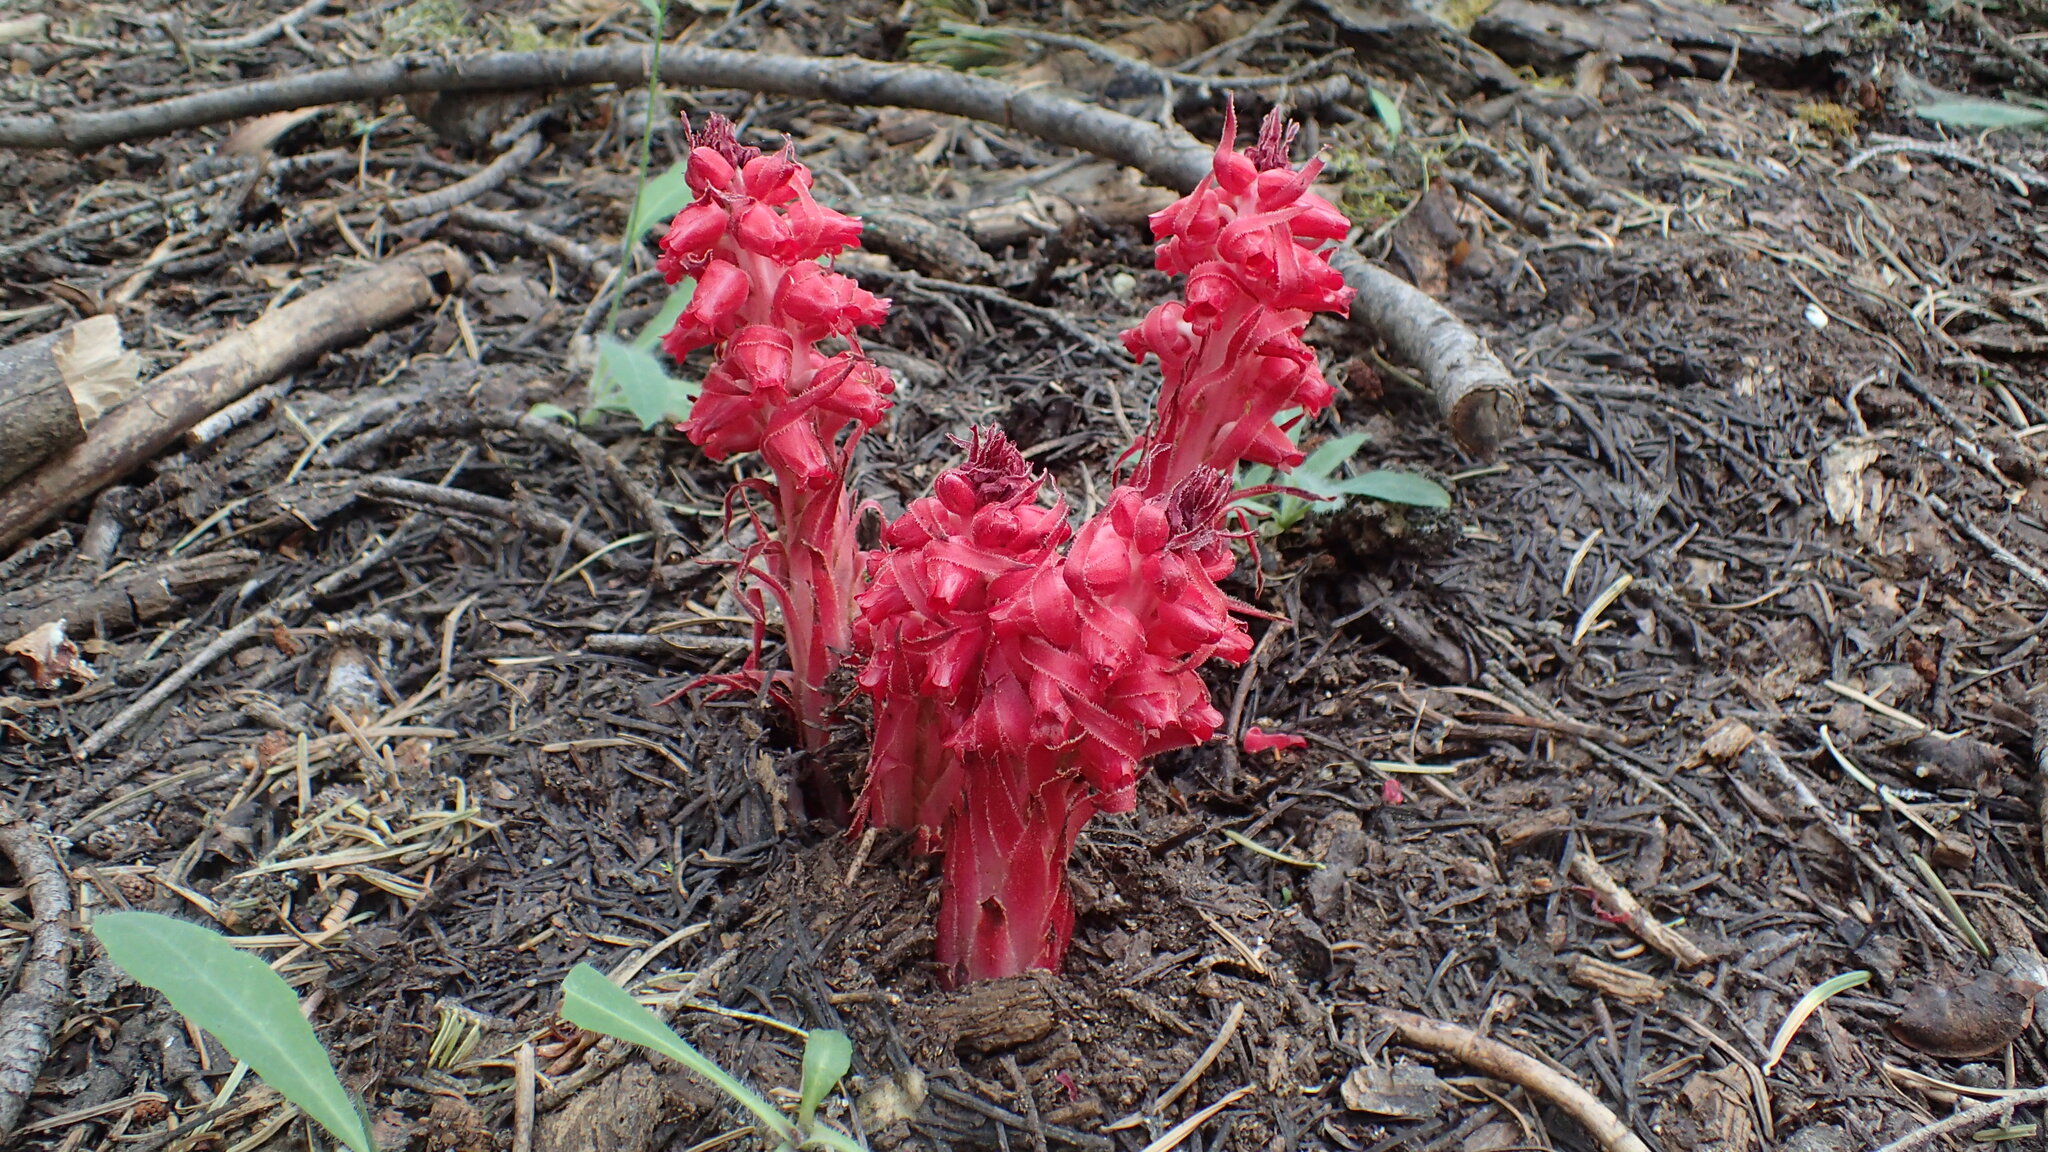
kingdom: Plantae
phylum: Tracheophyta
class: Magnoliopsida
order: Ericales
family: Ericaceae
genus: Sarcodes
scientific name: Sarcodes sanguinea
